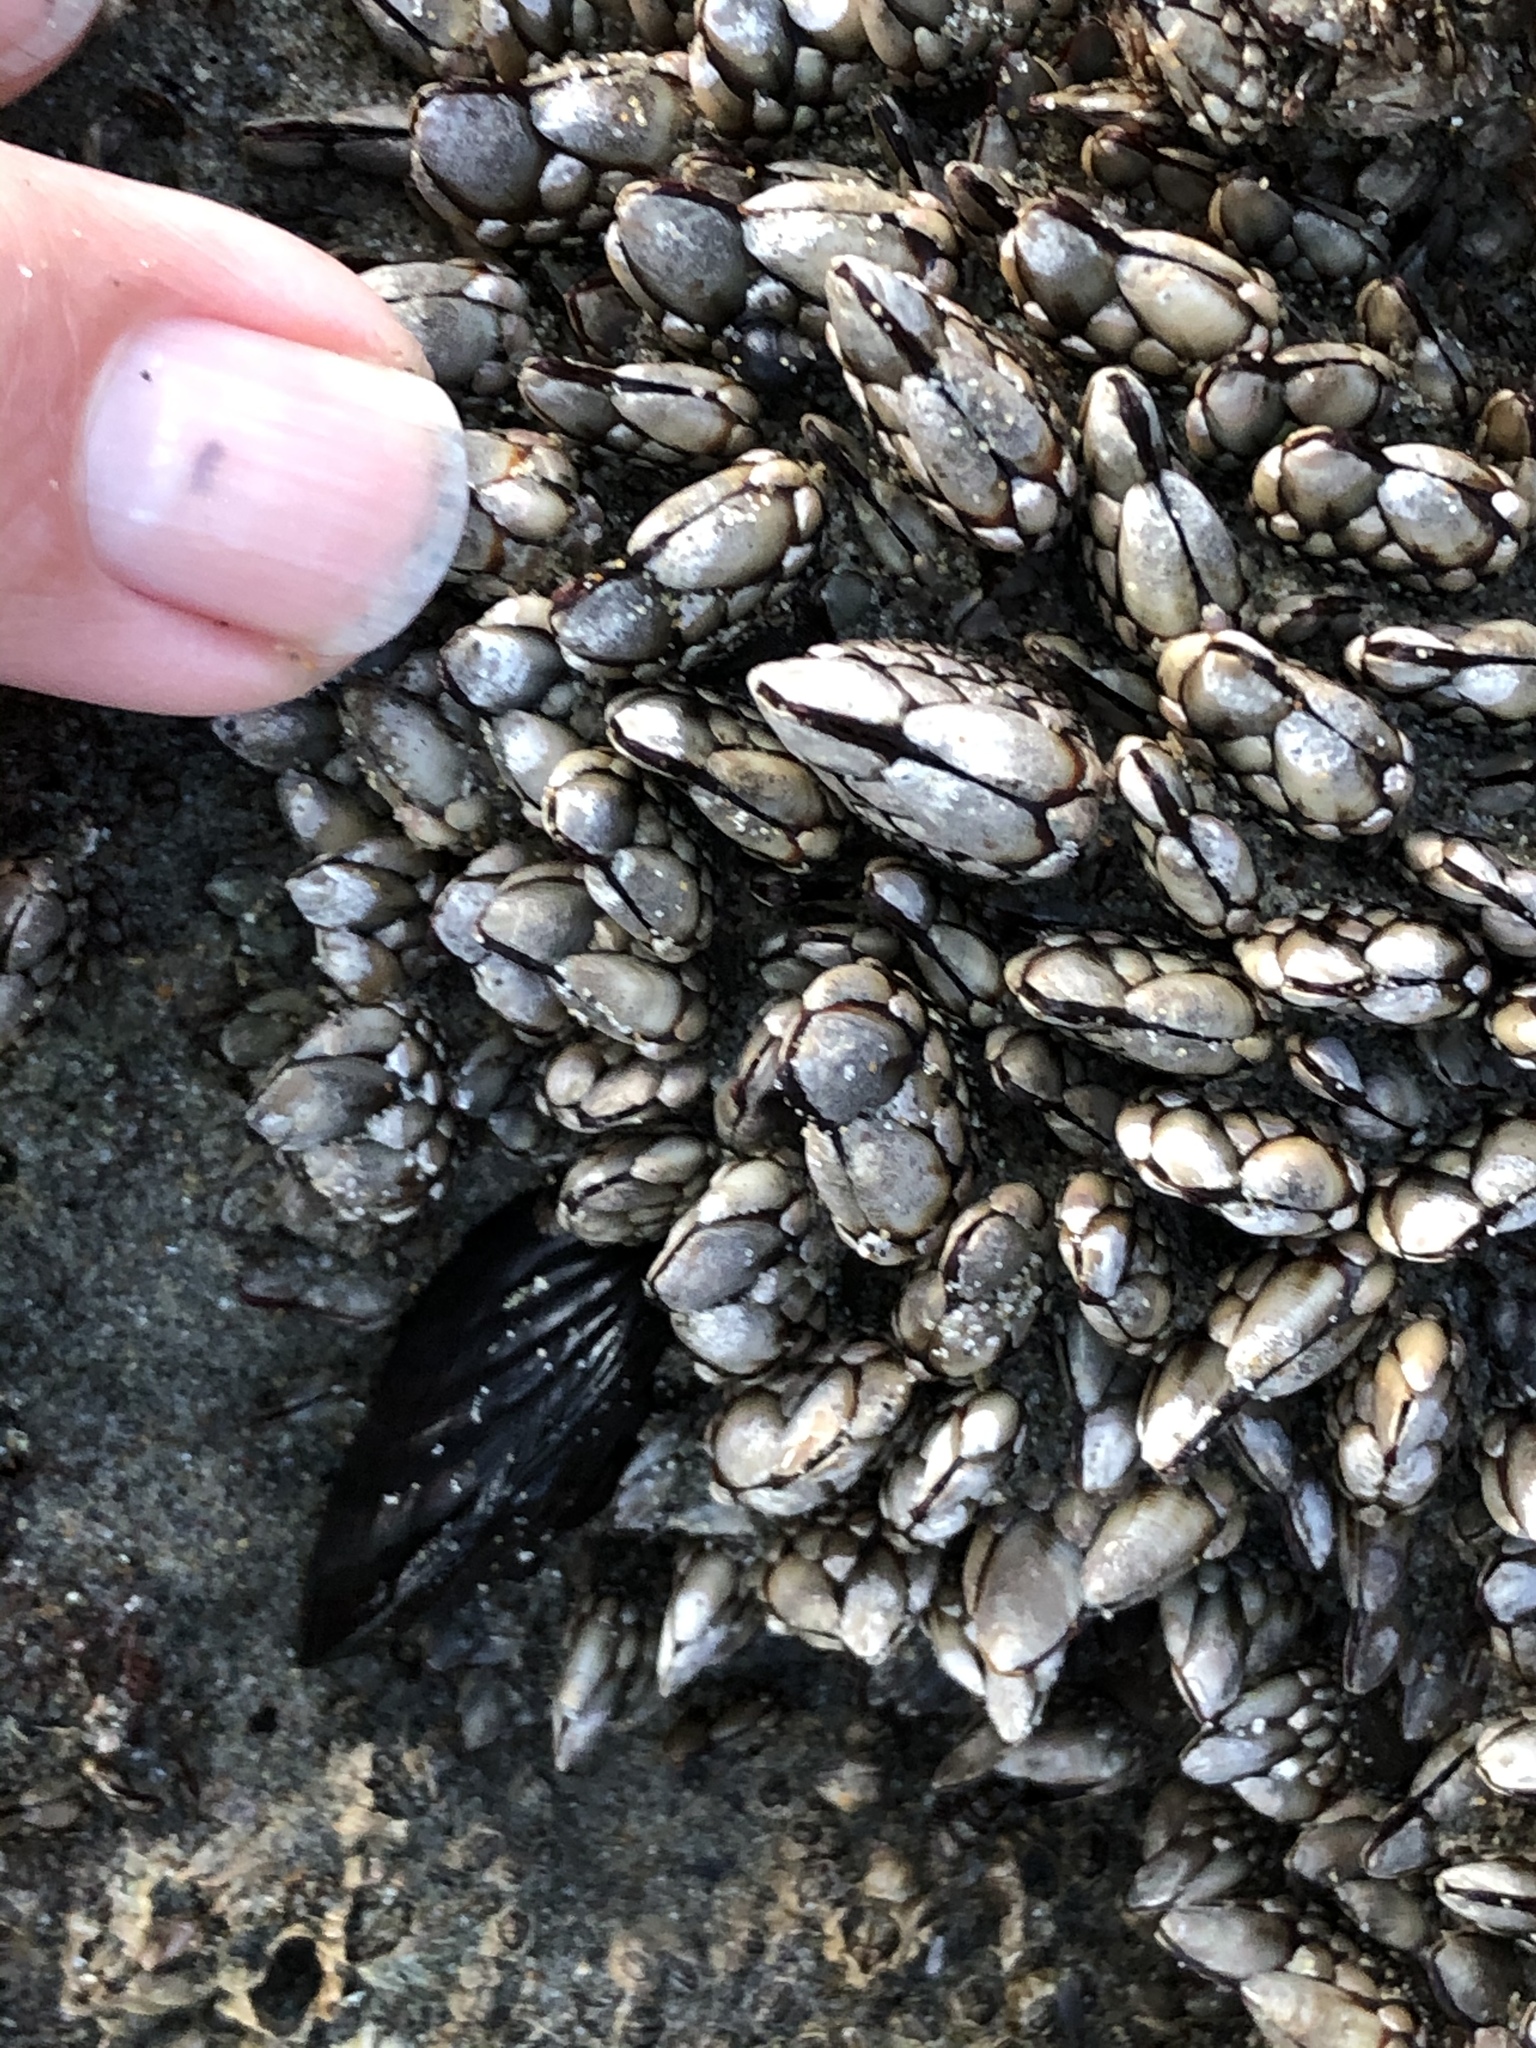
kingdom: Animalia
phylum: Arthropoda
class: Maxillopoda
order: Pedunculata
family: Pollicipedidae
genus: Pollicipes
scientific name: Pollicipes polymerus
